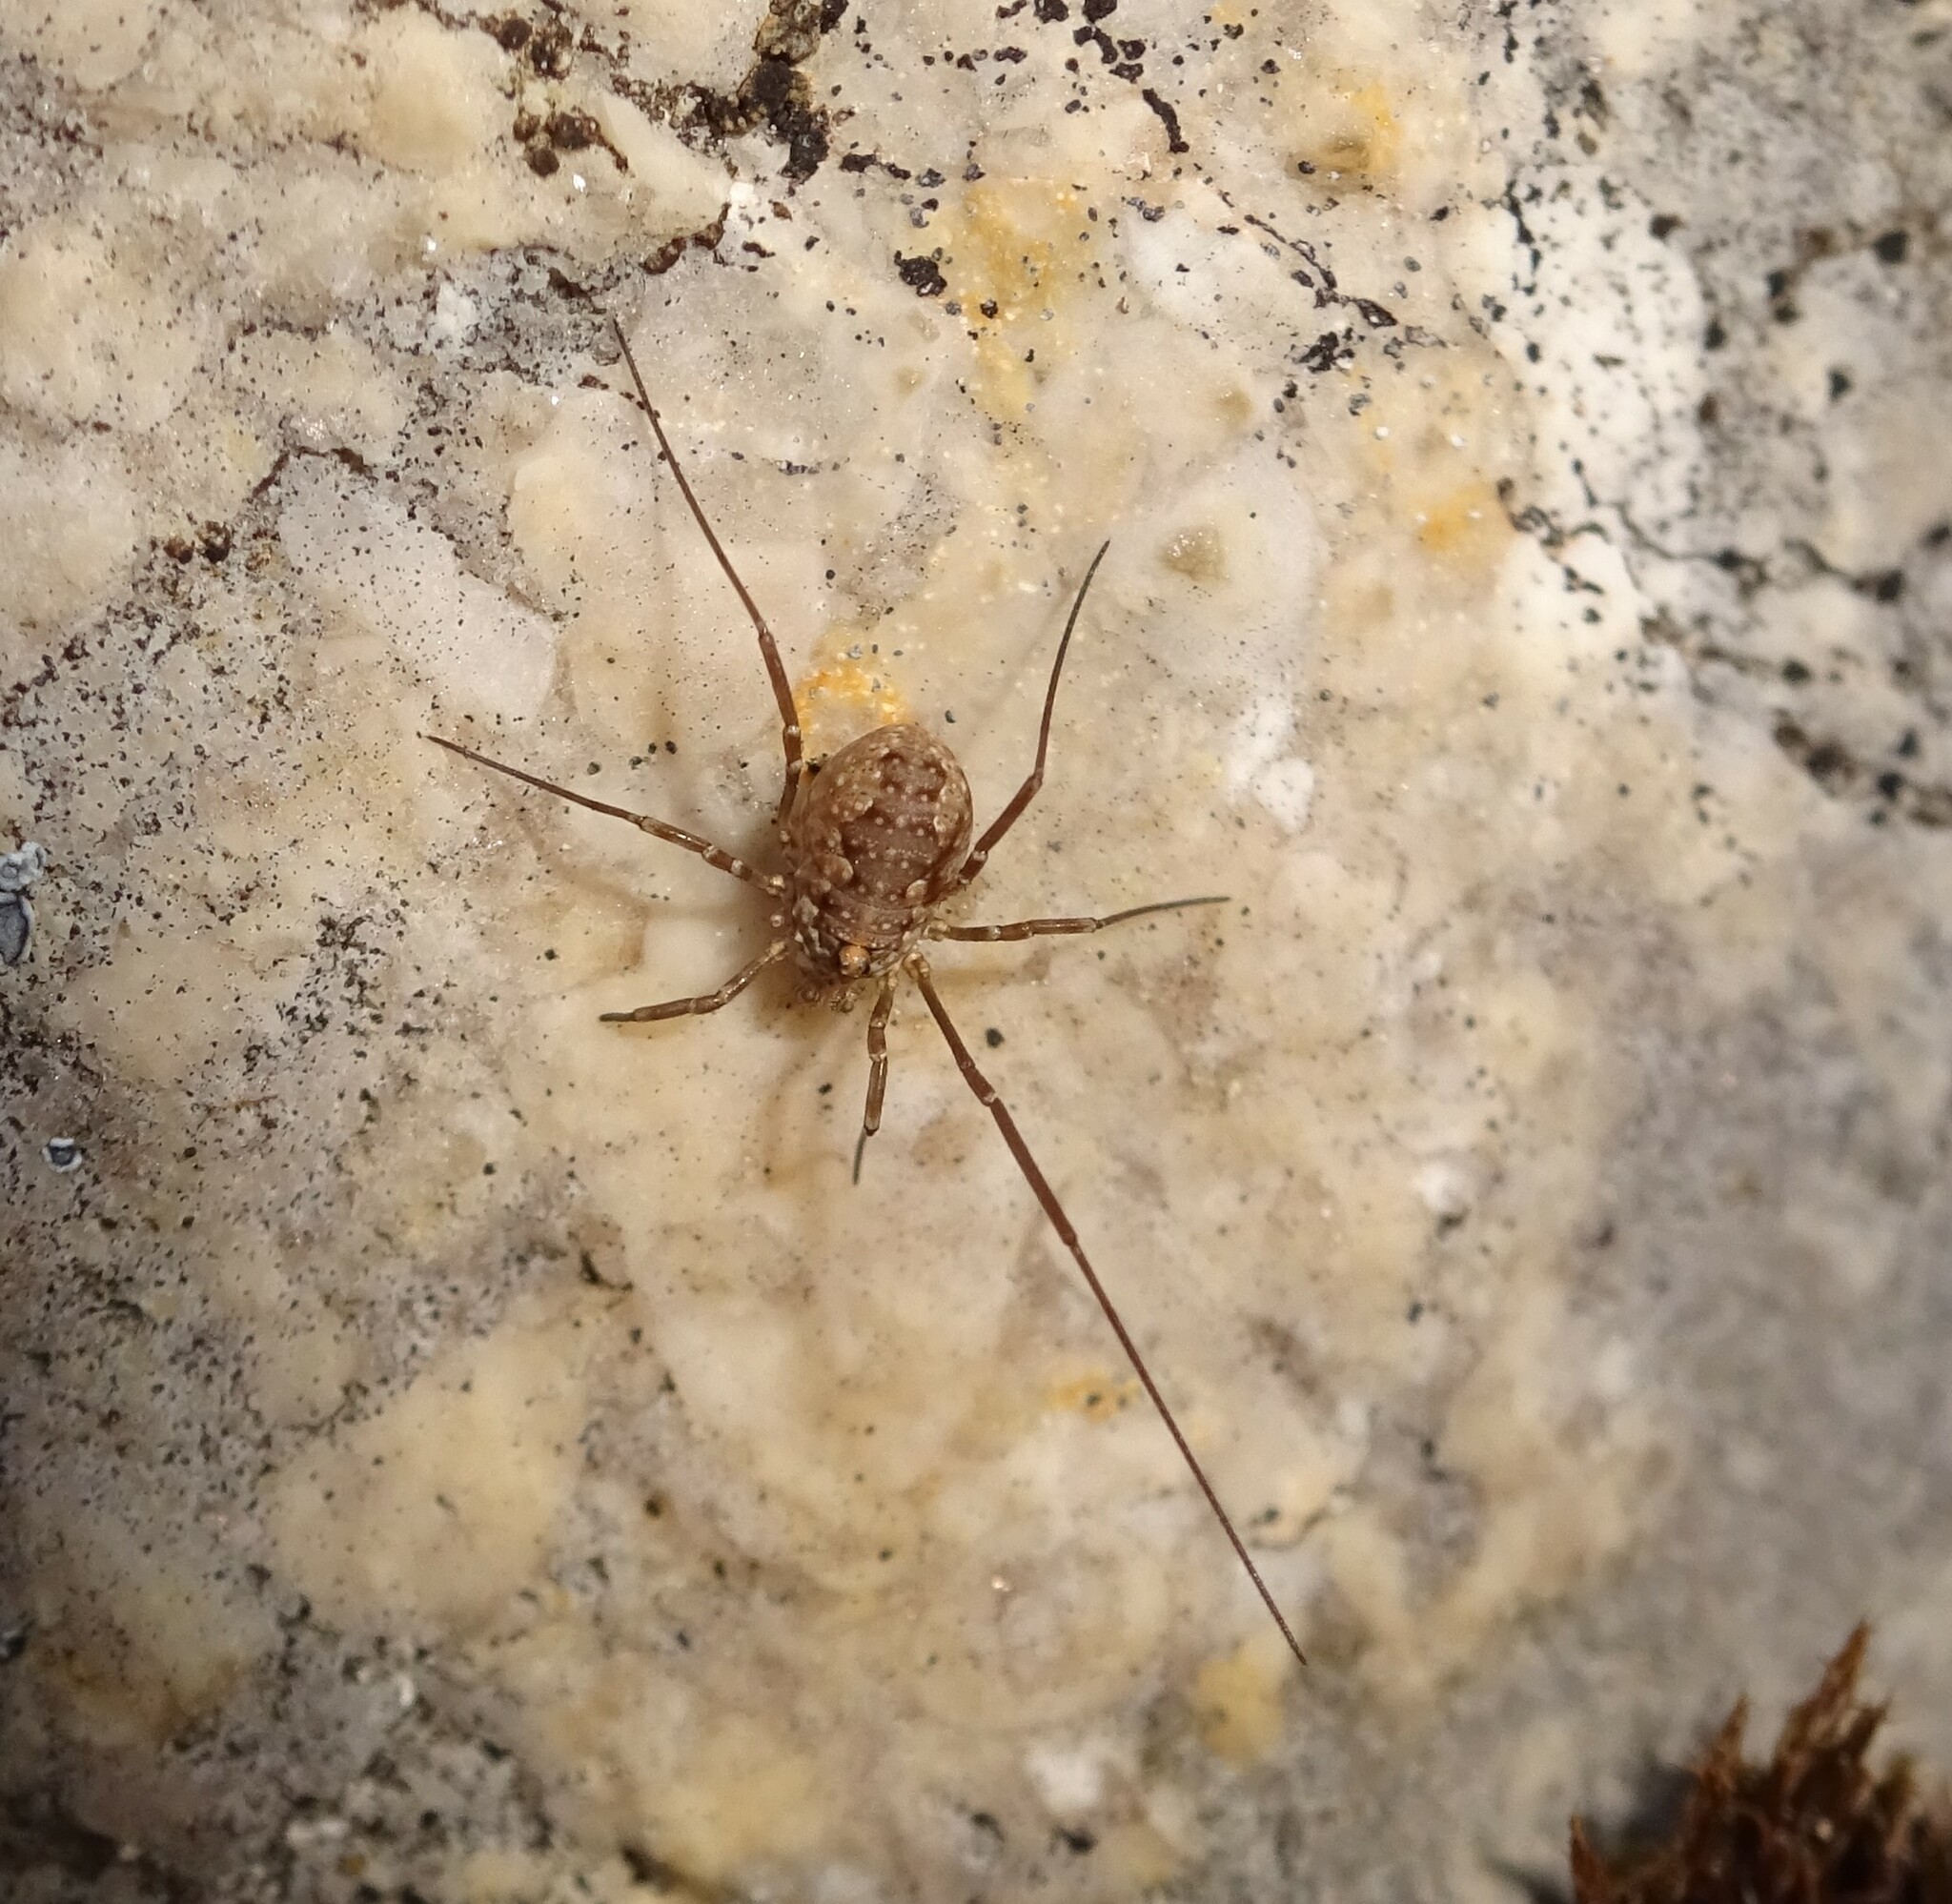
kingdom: Animalia
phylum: Arthropoda
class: Arachnida
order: Opiliones
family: Phalangiidae
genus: Phalangium
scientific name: Phalangium opilio
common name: Daddy longleg
